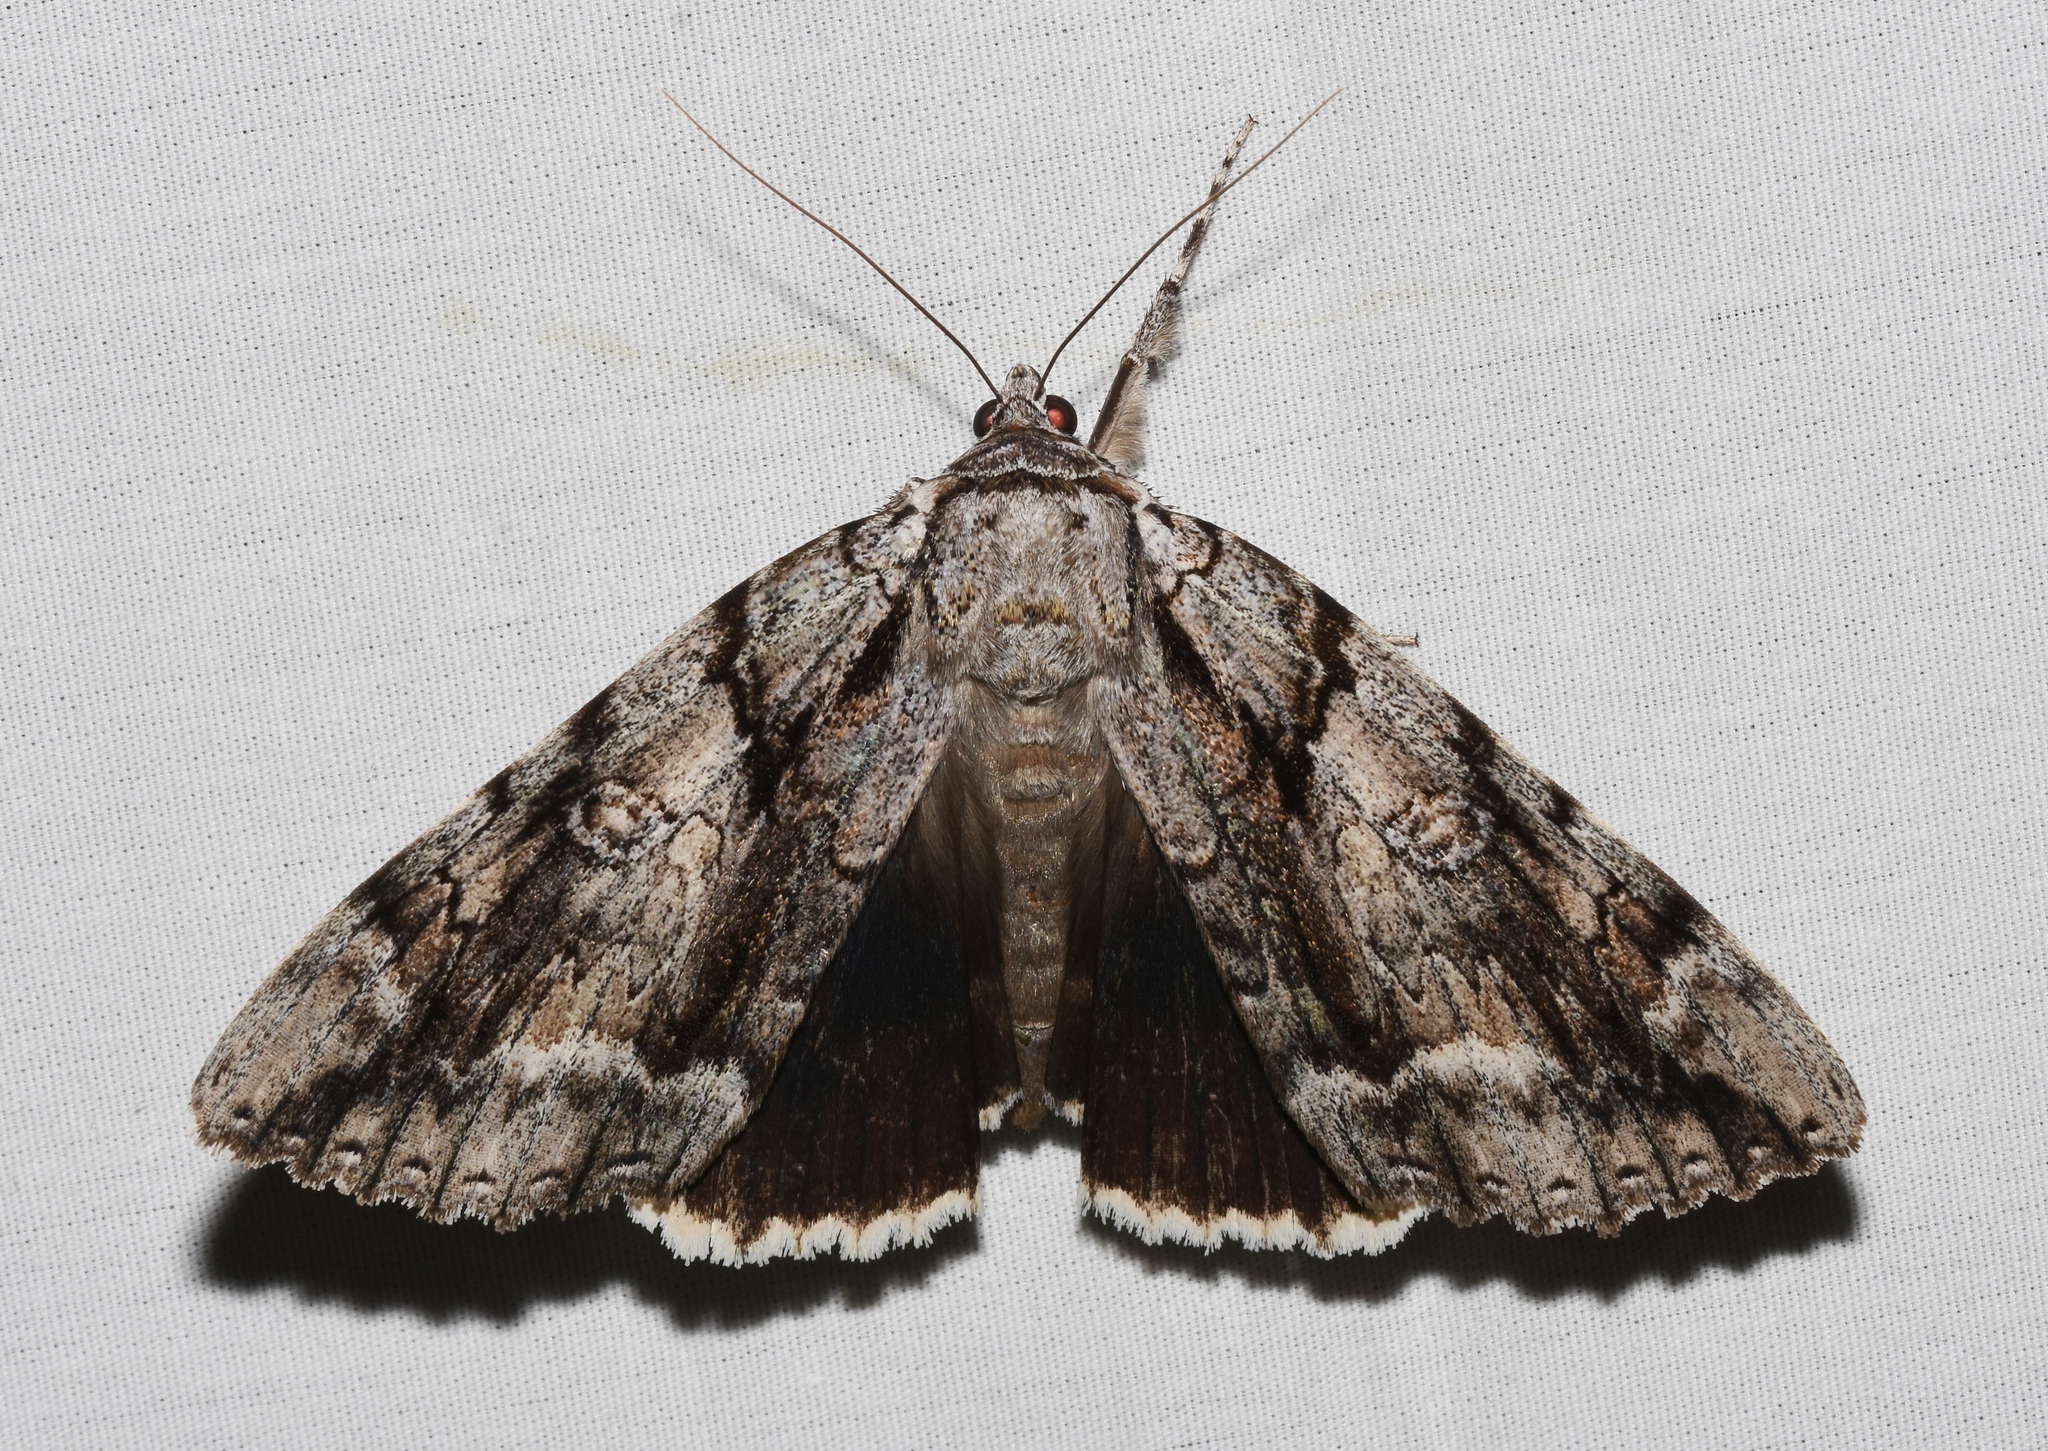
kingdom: Animalia
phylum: Arthropoda
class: Insecta
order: Lepidoptera
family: Erebidae
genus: Catocala
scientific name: Catocala vidua
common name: The widow
